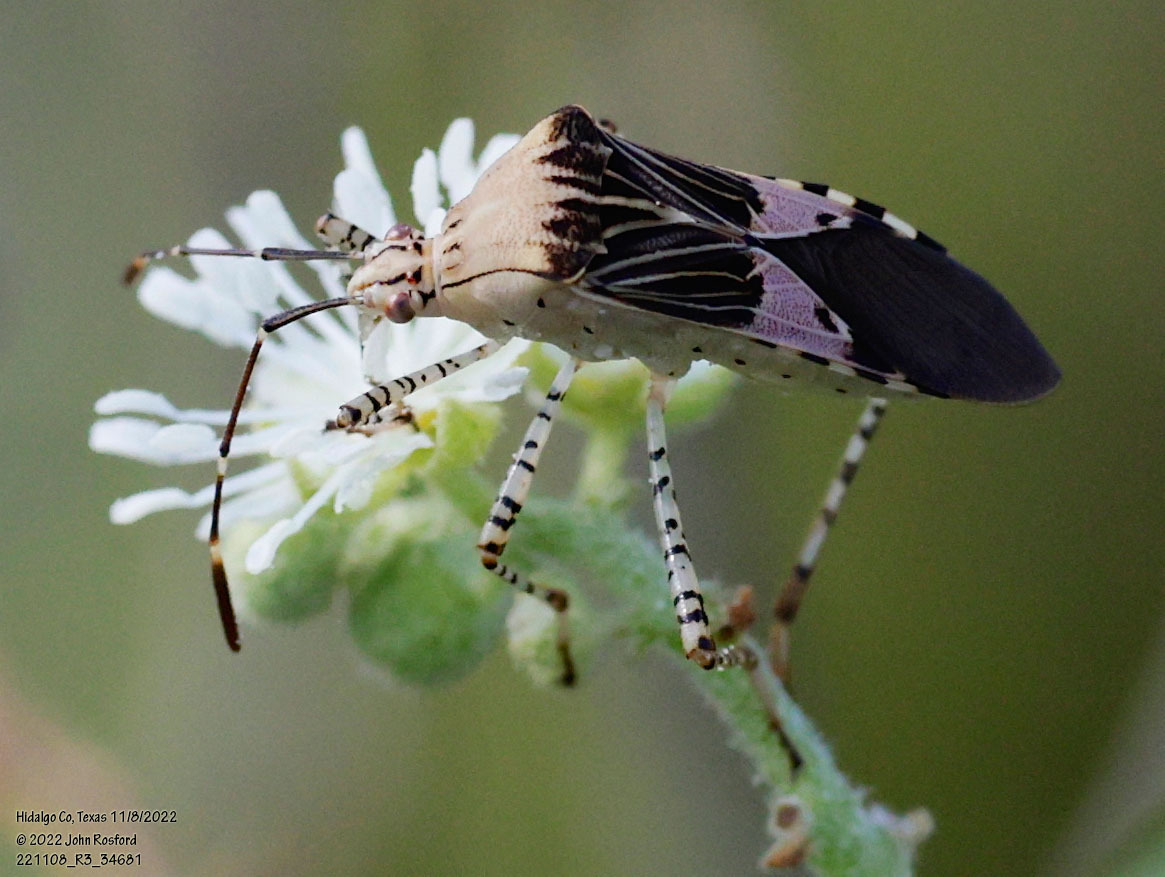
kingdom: Animalia
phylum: Arthropoda
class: Insecta
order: Hemiptera
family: Coreidae
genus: Hypselonotus
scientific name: Hypselonotus punctiventris
